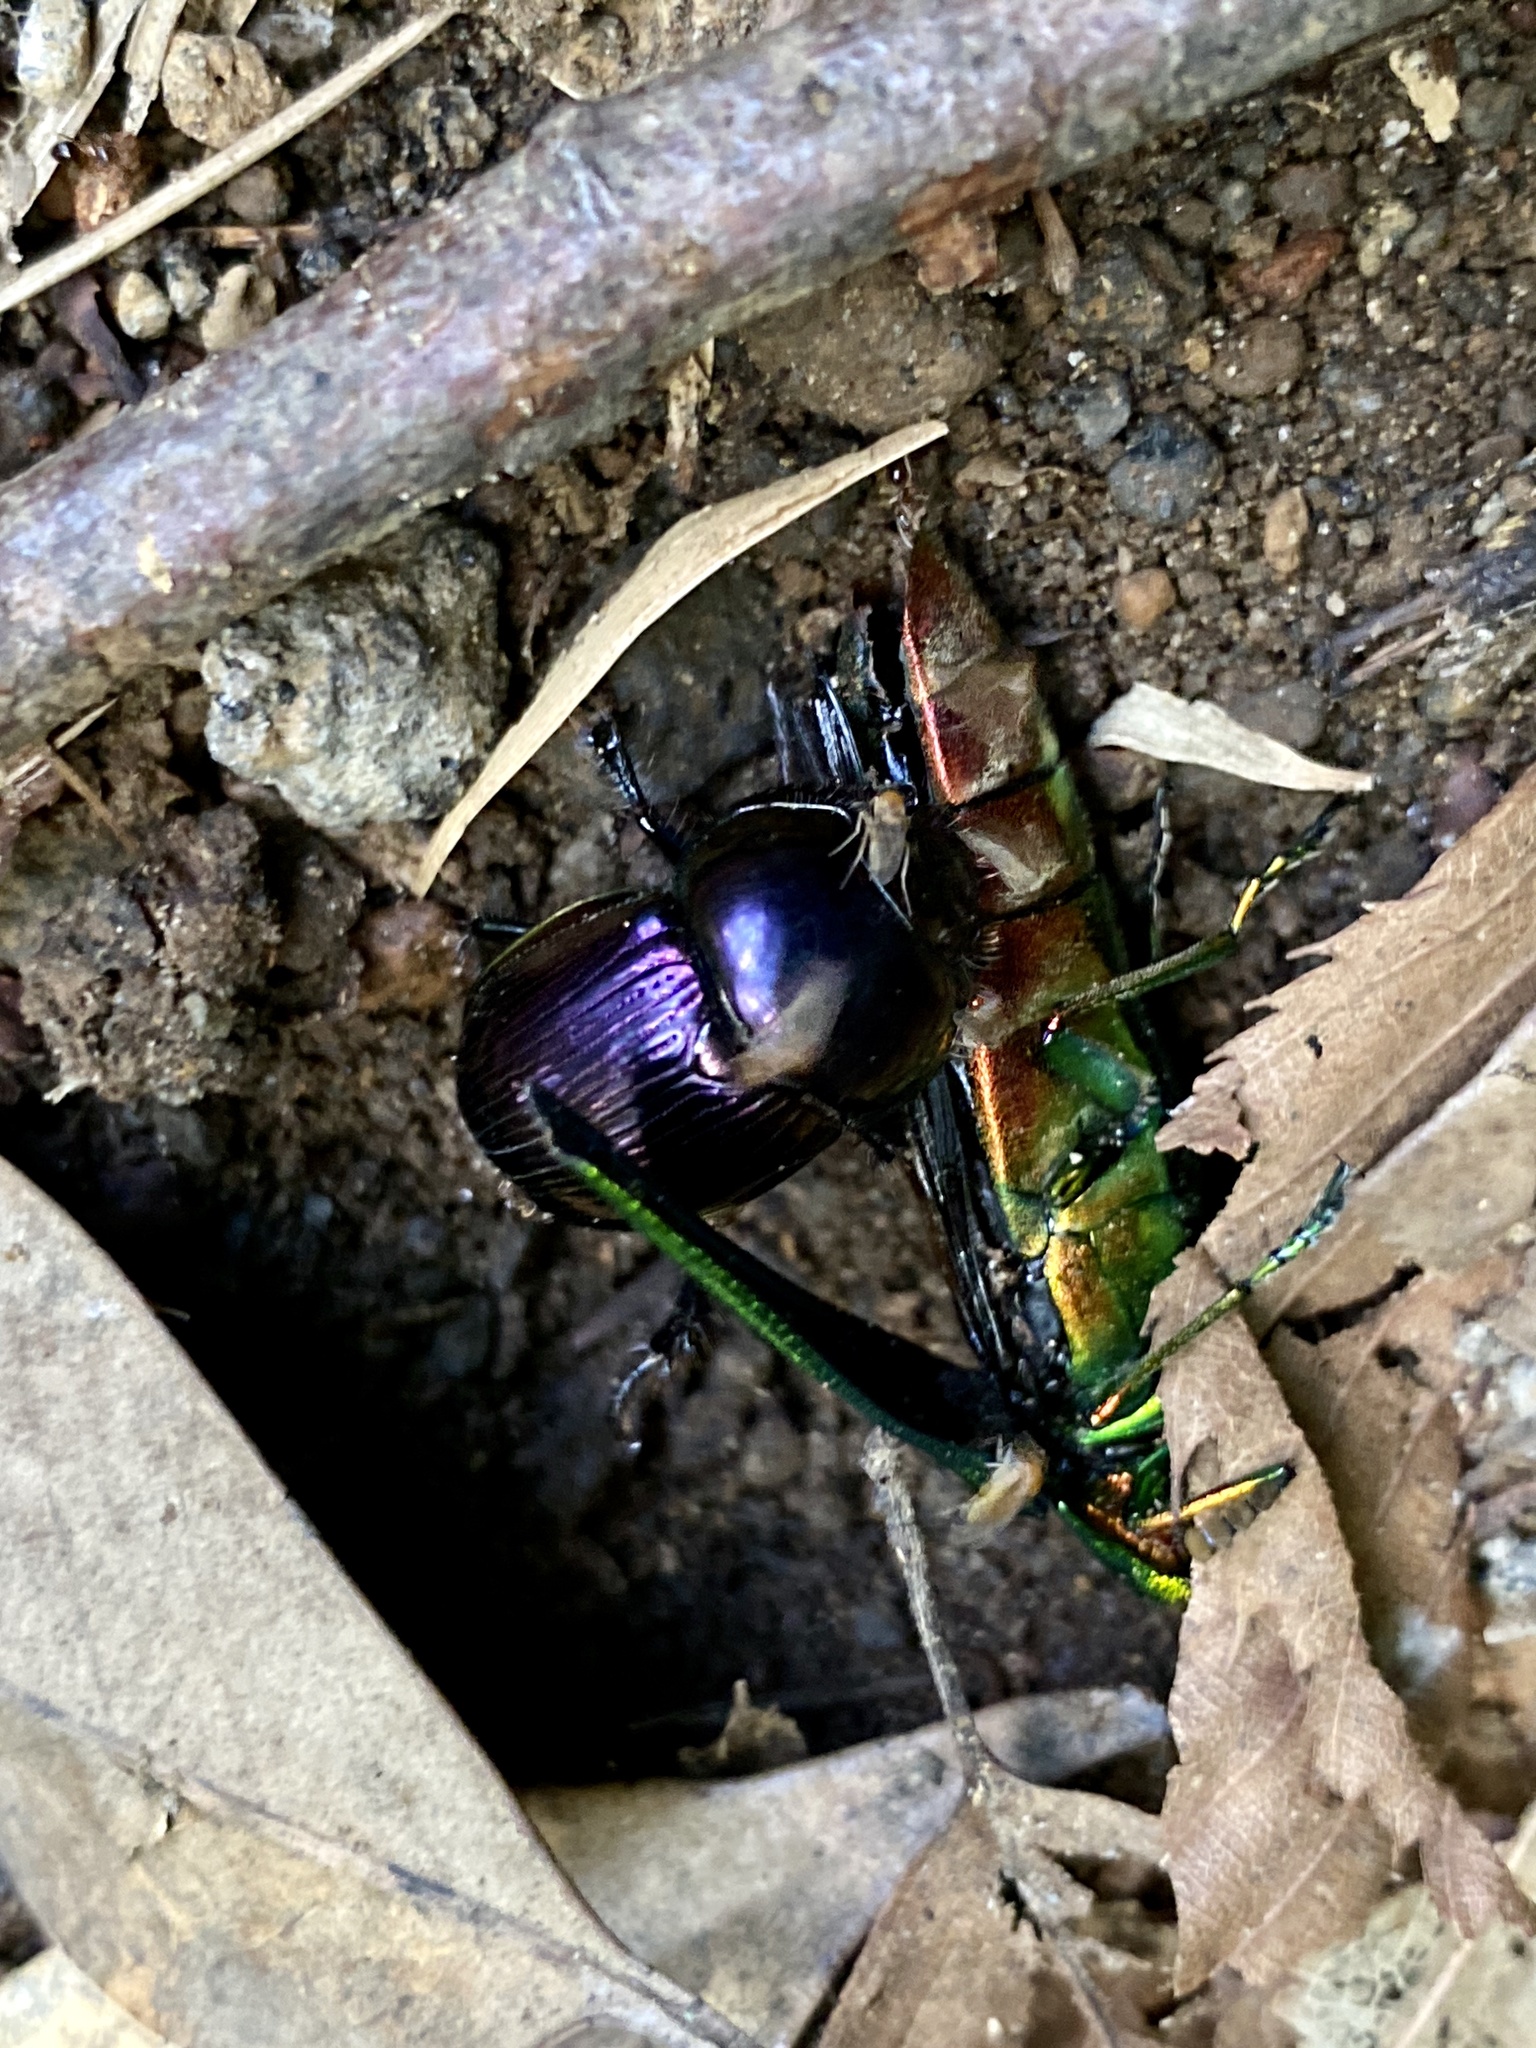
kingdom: Animalia
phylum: Arthropoda
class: Insecta
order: Coleoptera
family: Geotrupidae
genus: Phelotrupes
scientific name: Phelotrupes laevistriatus
